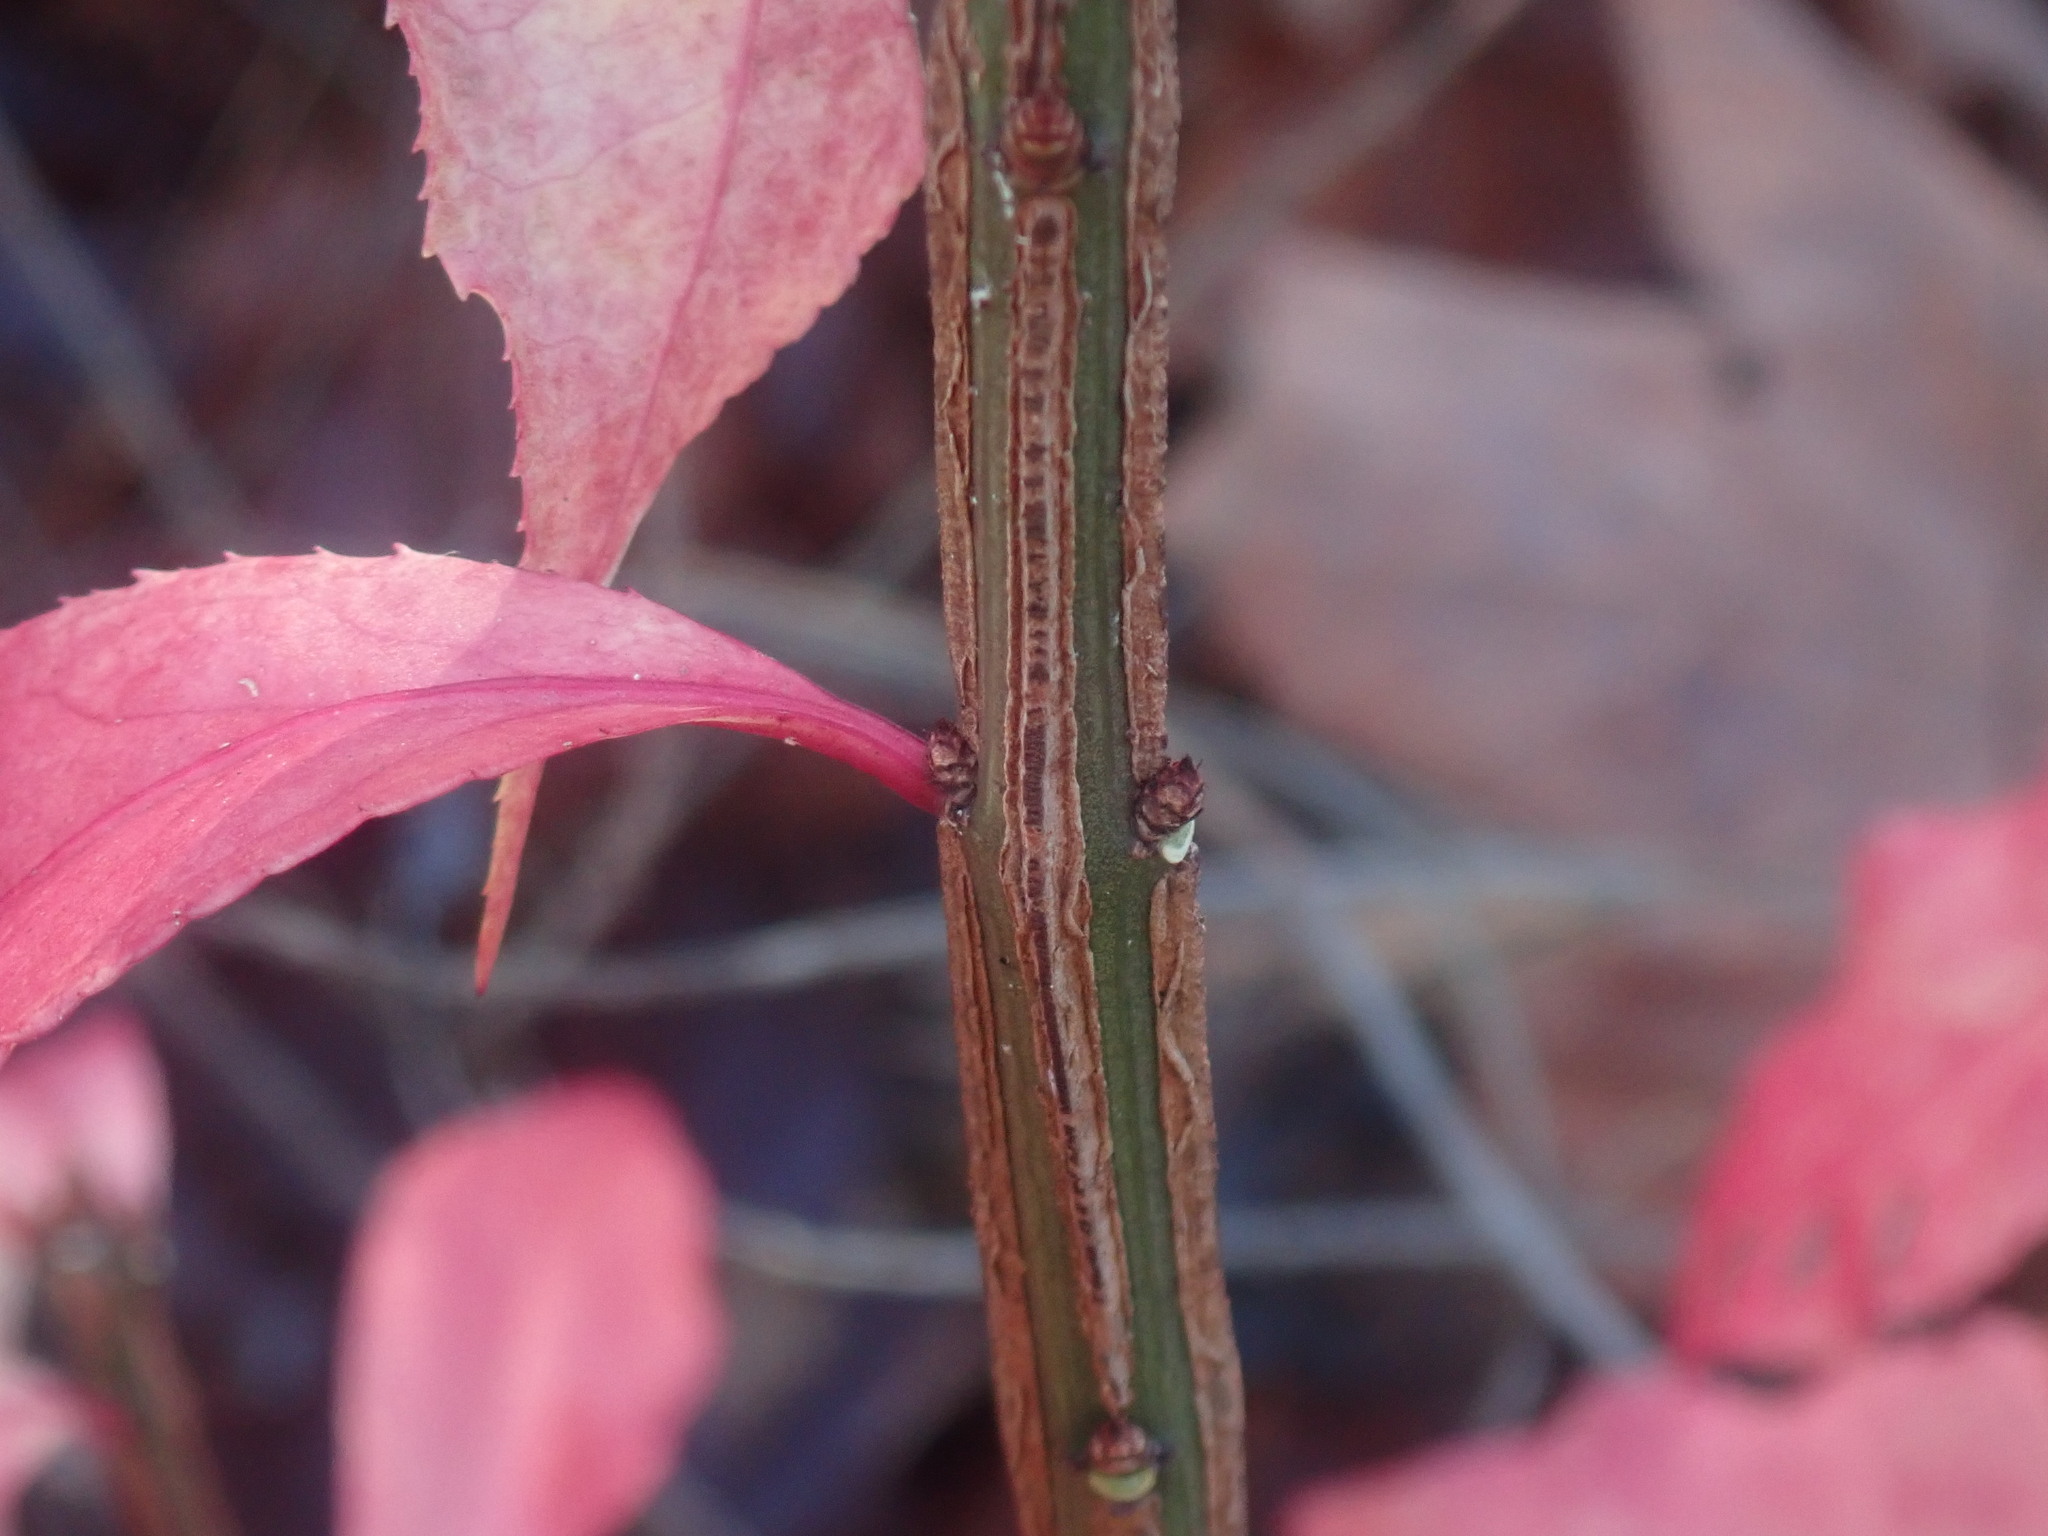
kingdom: Plantae
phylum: Tracheophyta
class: Magnoliopsida
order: Celastrales
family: Celastraceae
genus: Euonymus
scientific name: Euonymus alatus
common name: Winged euonymus
